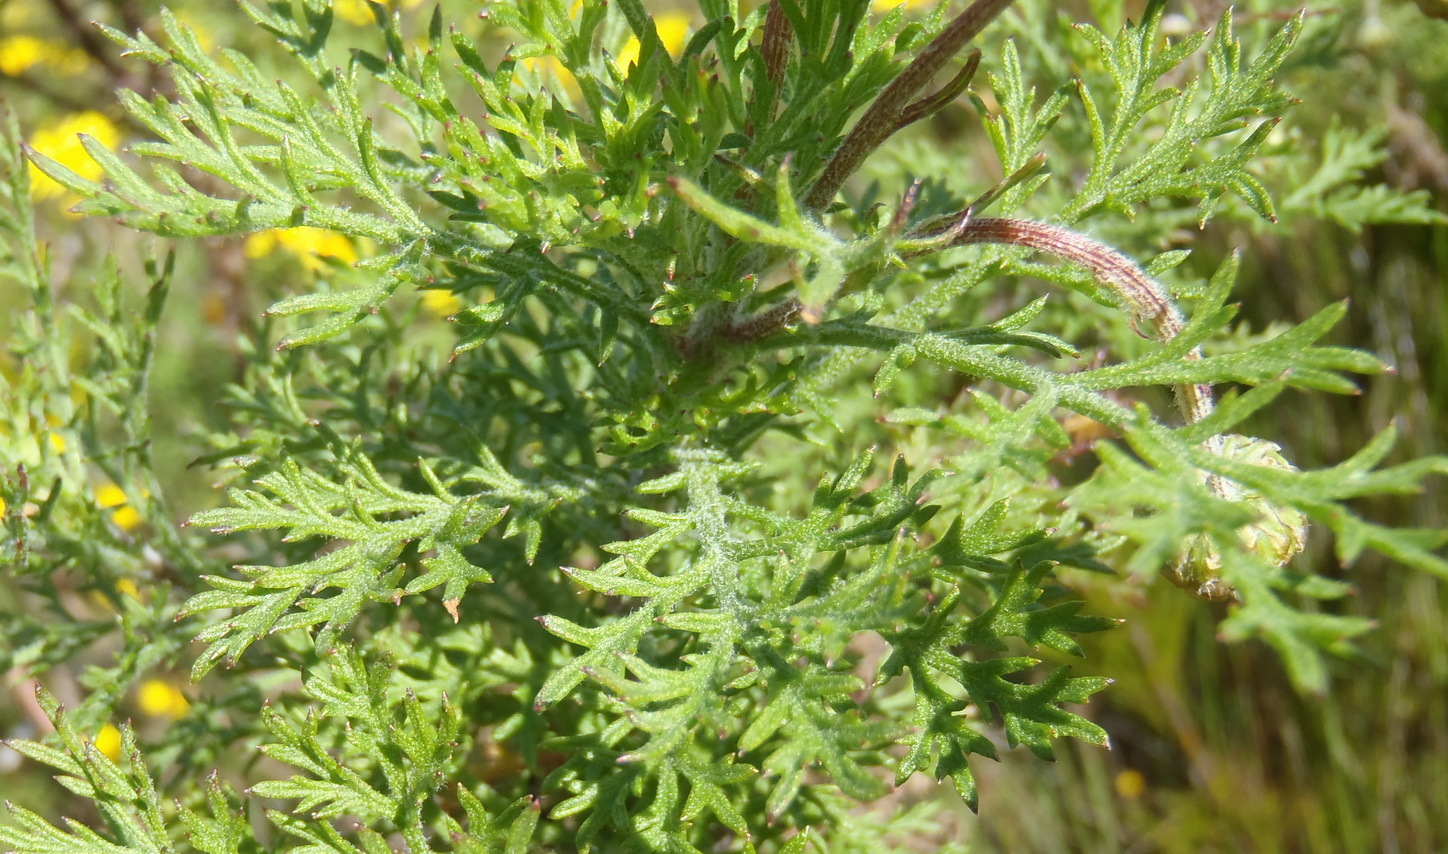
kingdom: Plantae
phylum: Tracheophyta
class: Magnoliopsida
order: Asterales
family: Asteraceae
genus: Ursinia
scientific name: Ursinia paleacea
